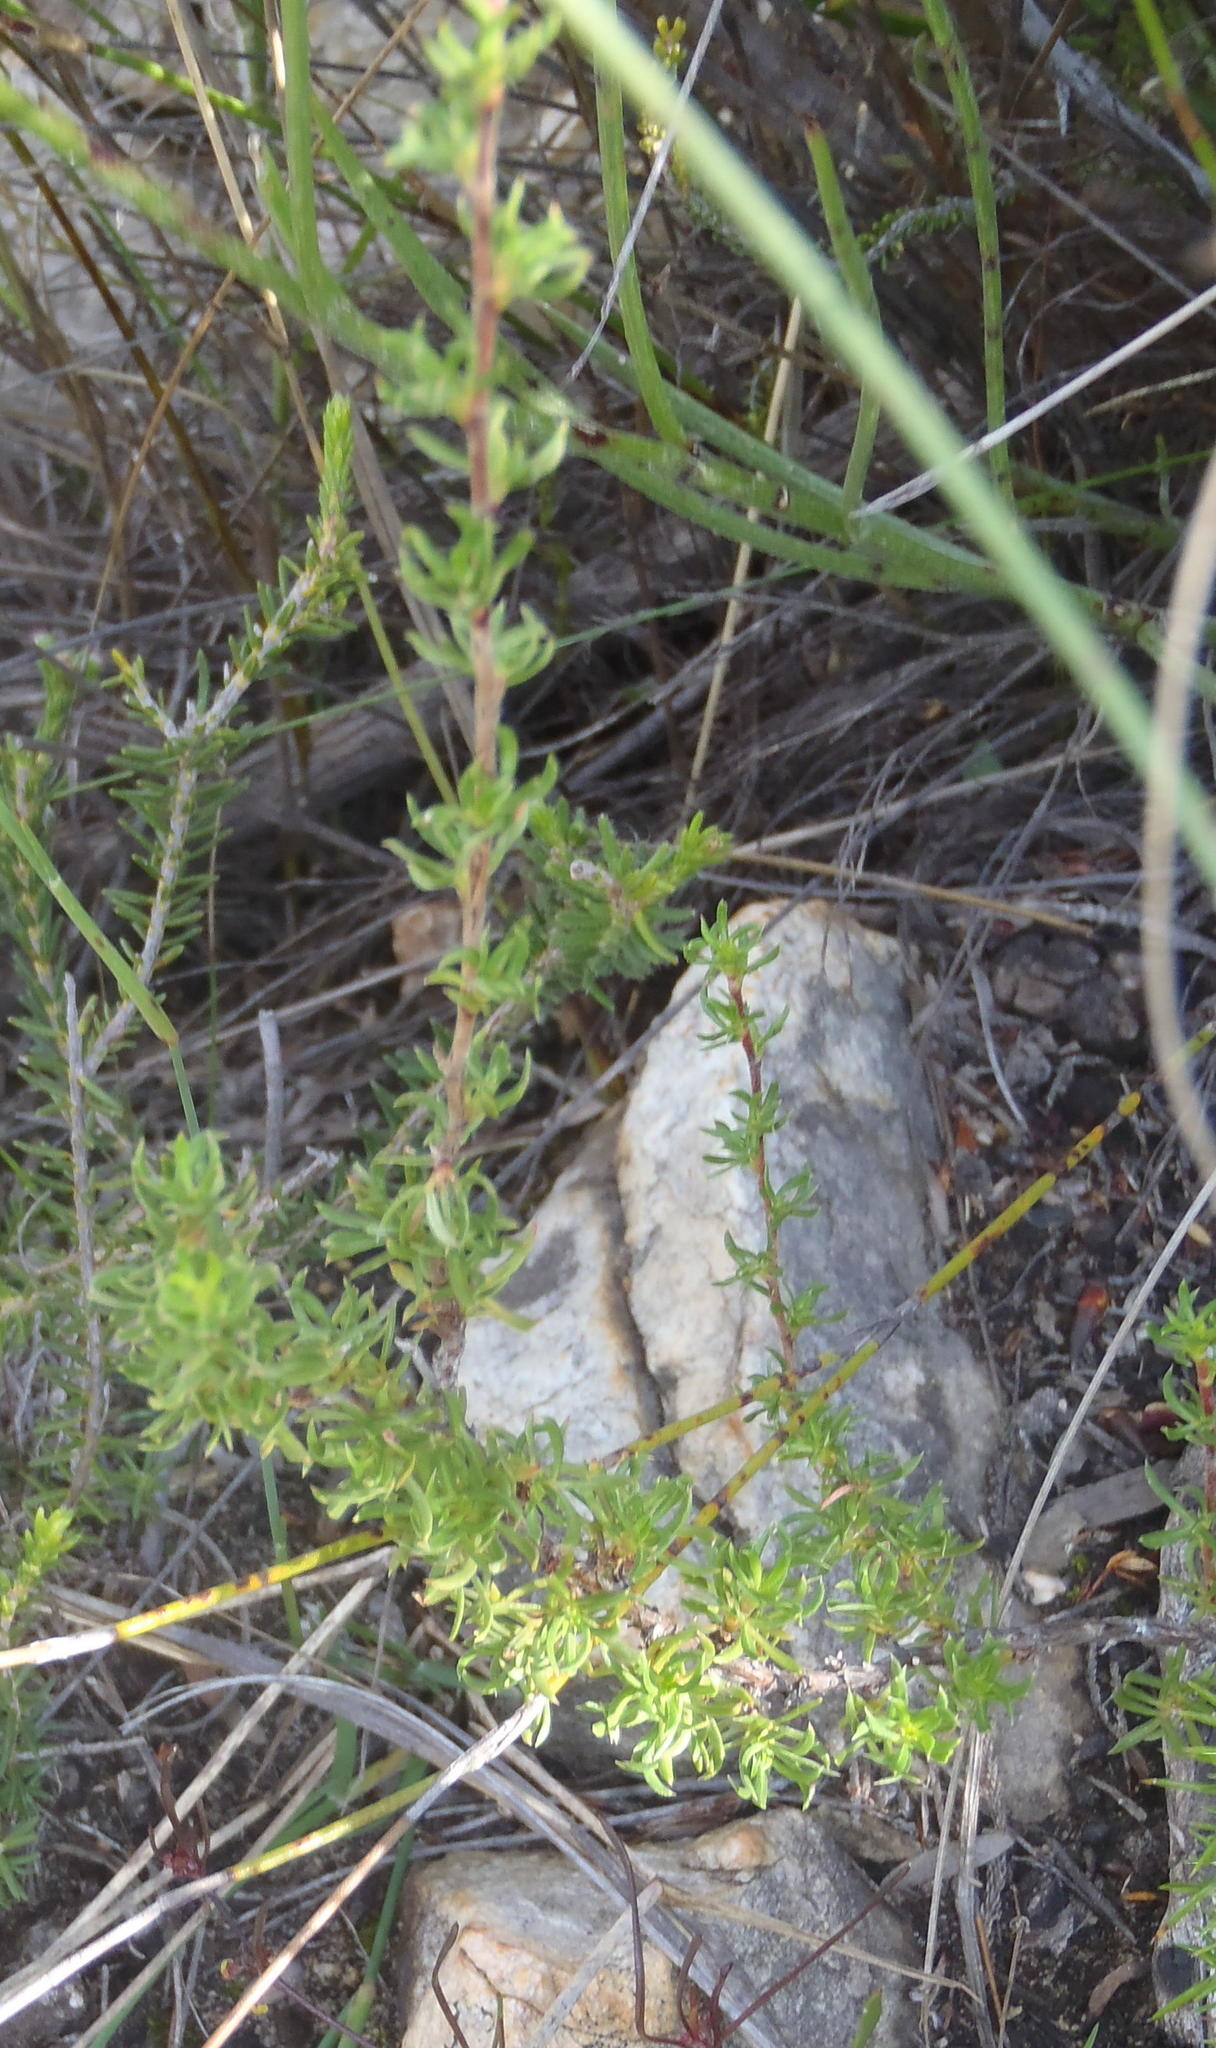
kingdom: Plantae
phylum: Tracheophyta
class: Magnoliopsida
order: Rosales
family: Rosaceae
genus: Cliffortia
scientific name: Cliffortia arcuata
